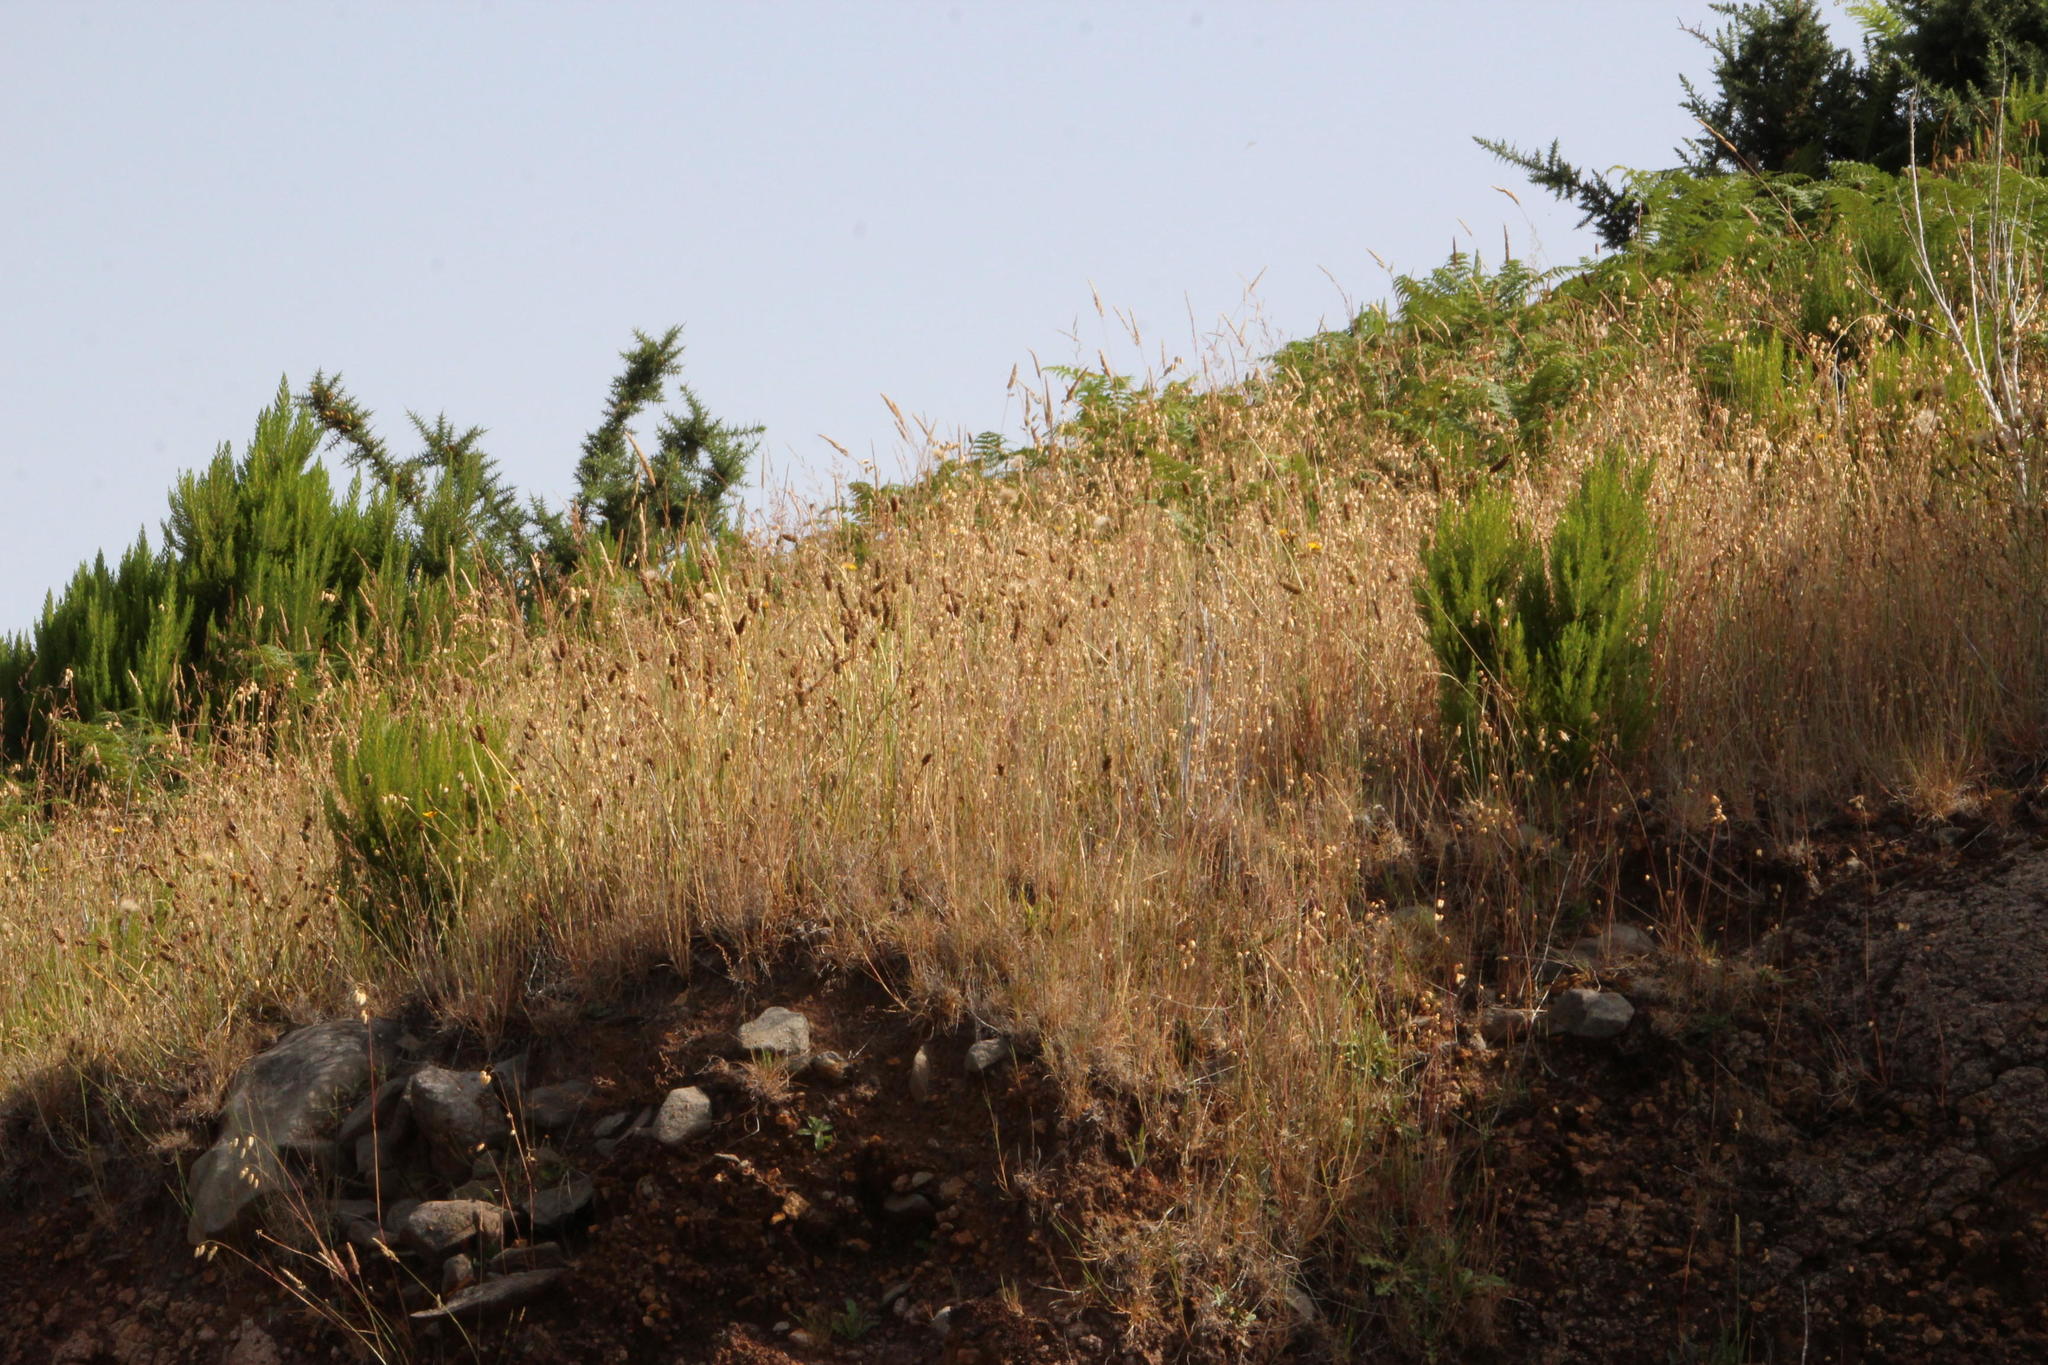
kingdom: Plantae
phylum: Tracheophyta
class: Liliopsida
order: Poales
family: Poaceae
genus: Briza
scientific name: Briza maxima
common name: Big quakinggrass
